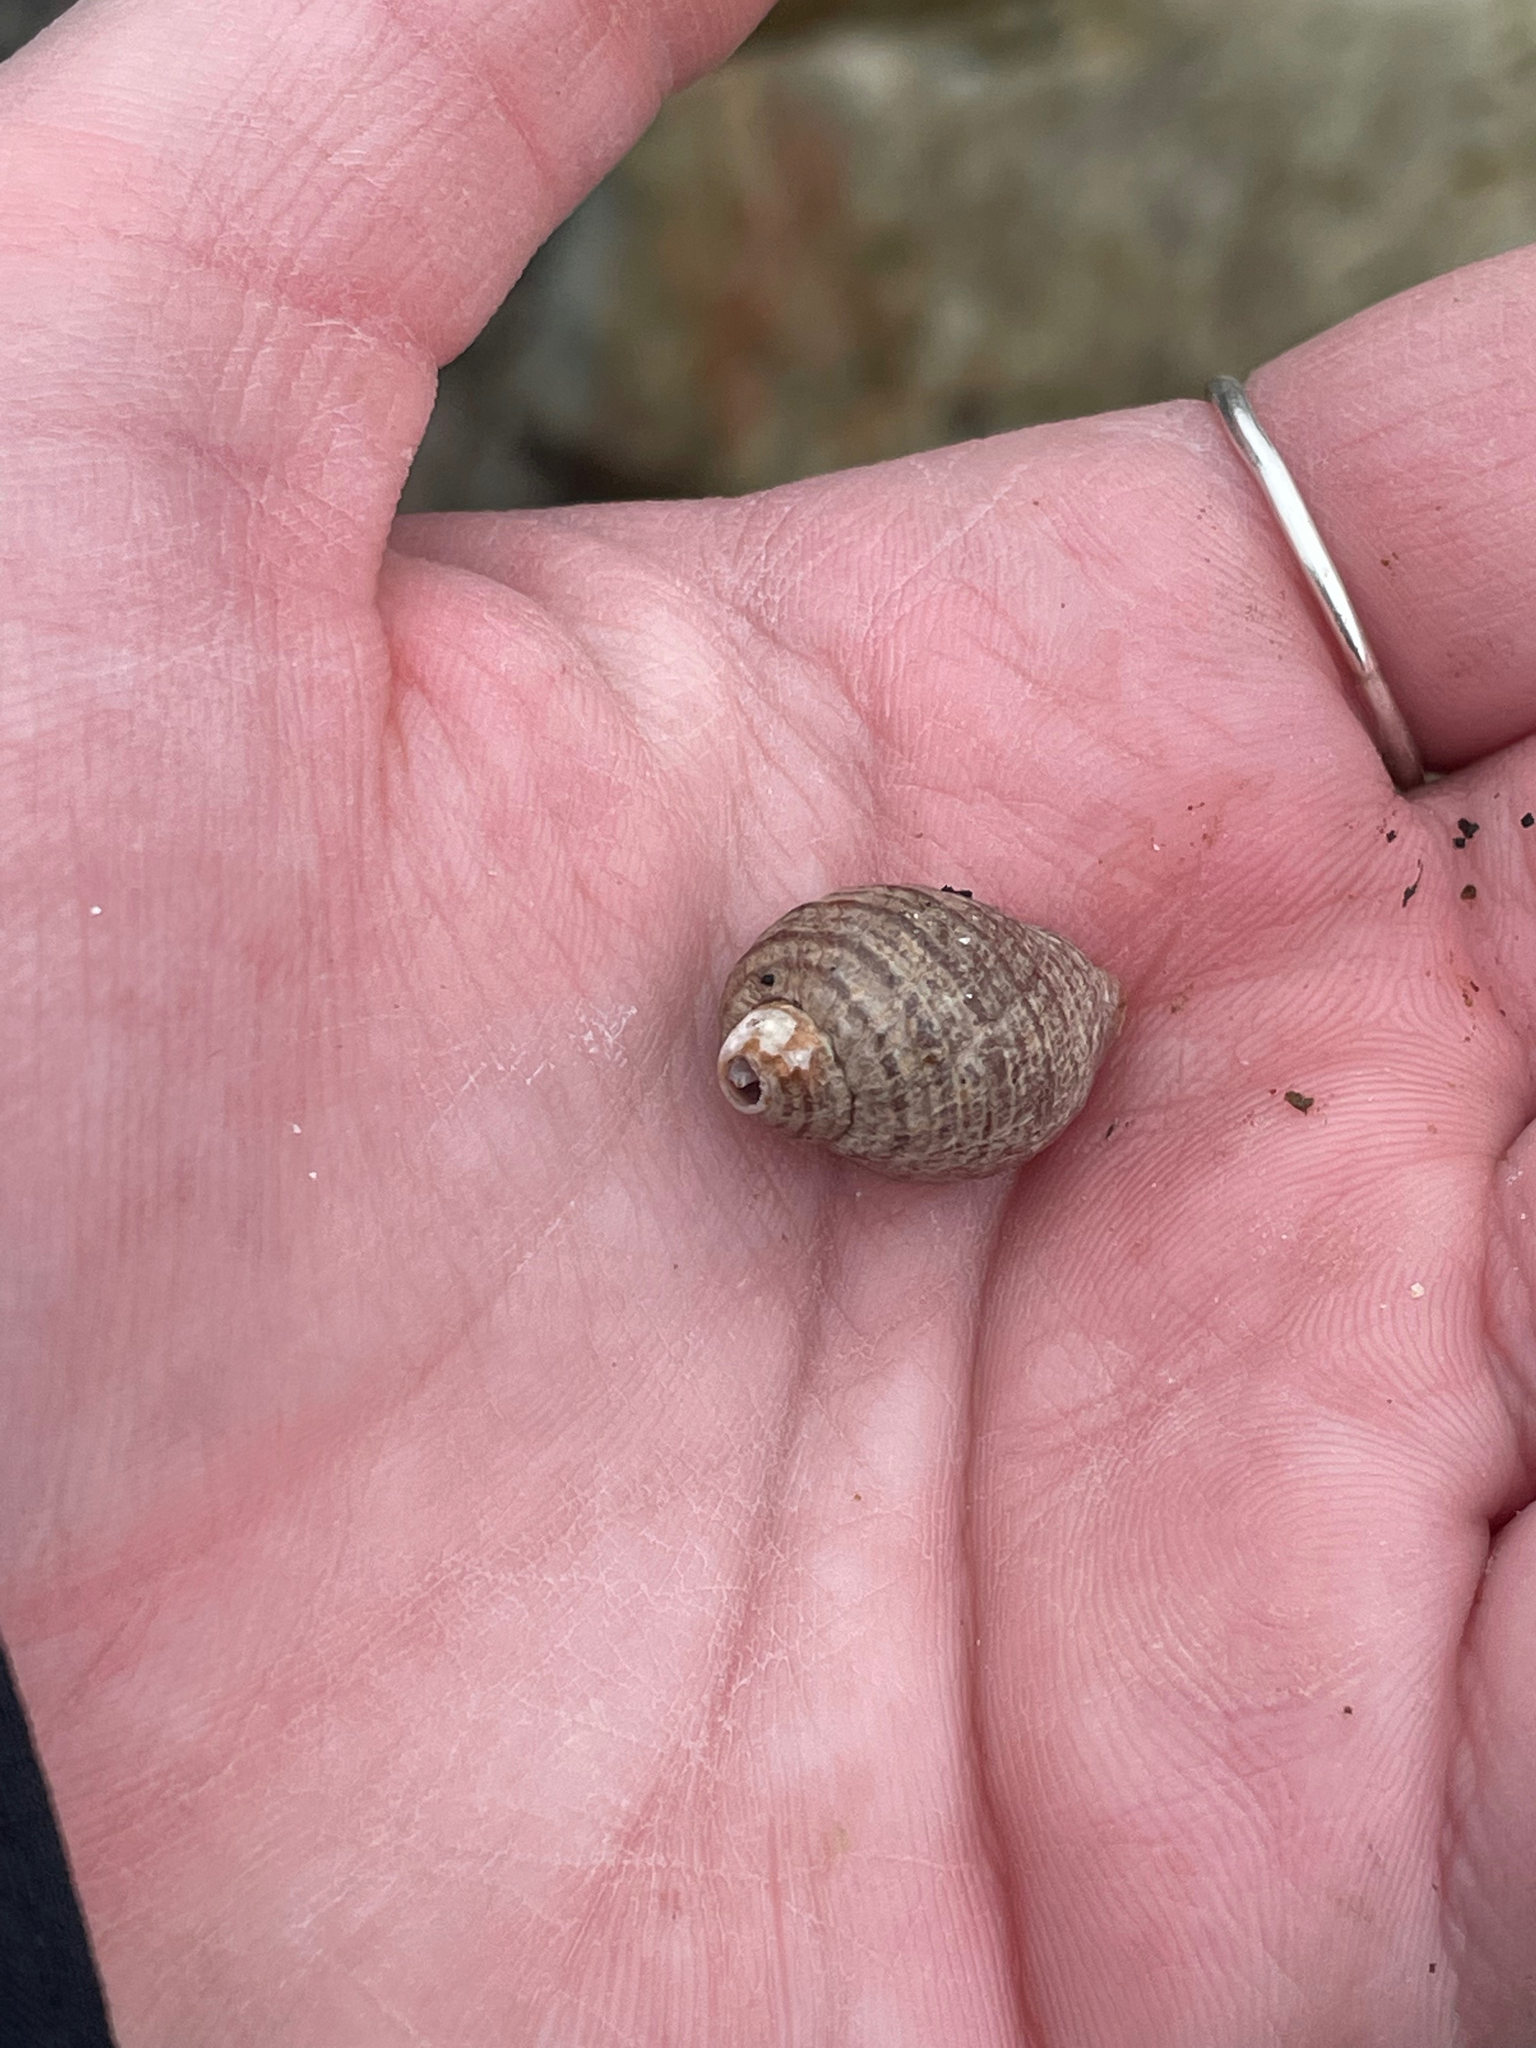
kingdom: Animalia
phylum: Mollusca
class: Gastropoda
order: Neogastropoda
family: Muricidae
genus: Nucella
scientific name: Nucella lapillus
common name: Dog whelk
